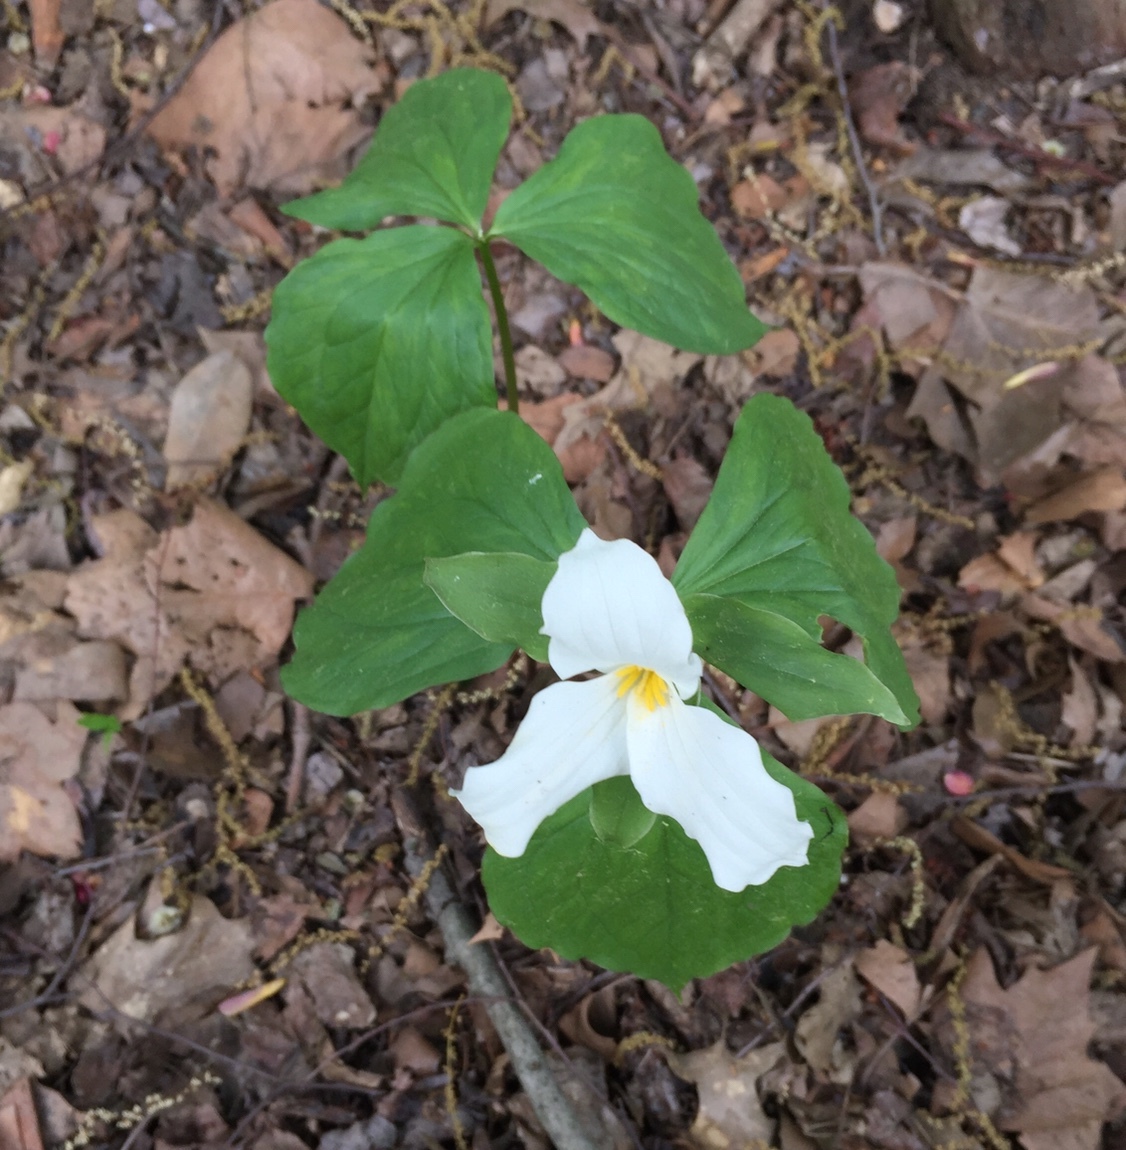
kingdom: Plantae
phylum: Tracheophyta
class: Liliopsida
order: Liliales
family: Melanthiaceae
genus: Trillium
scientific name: Trillium grandiflorum
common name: Great white trillium
